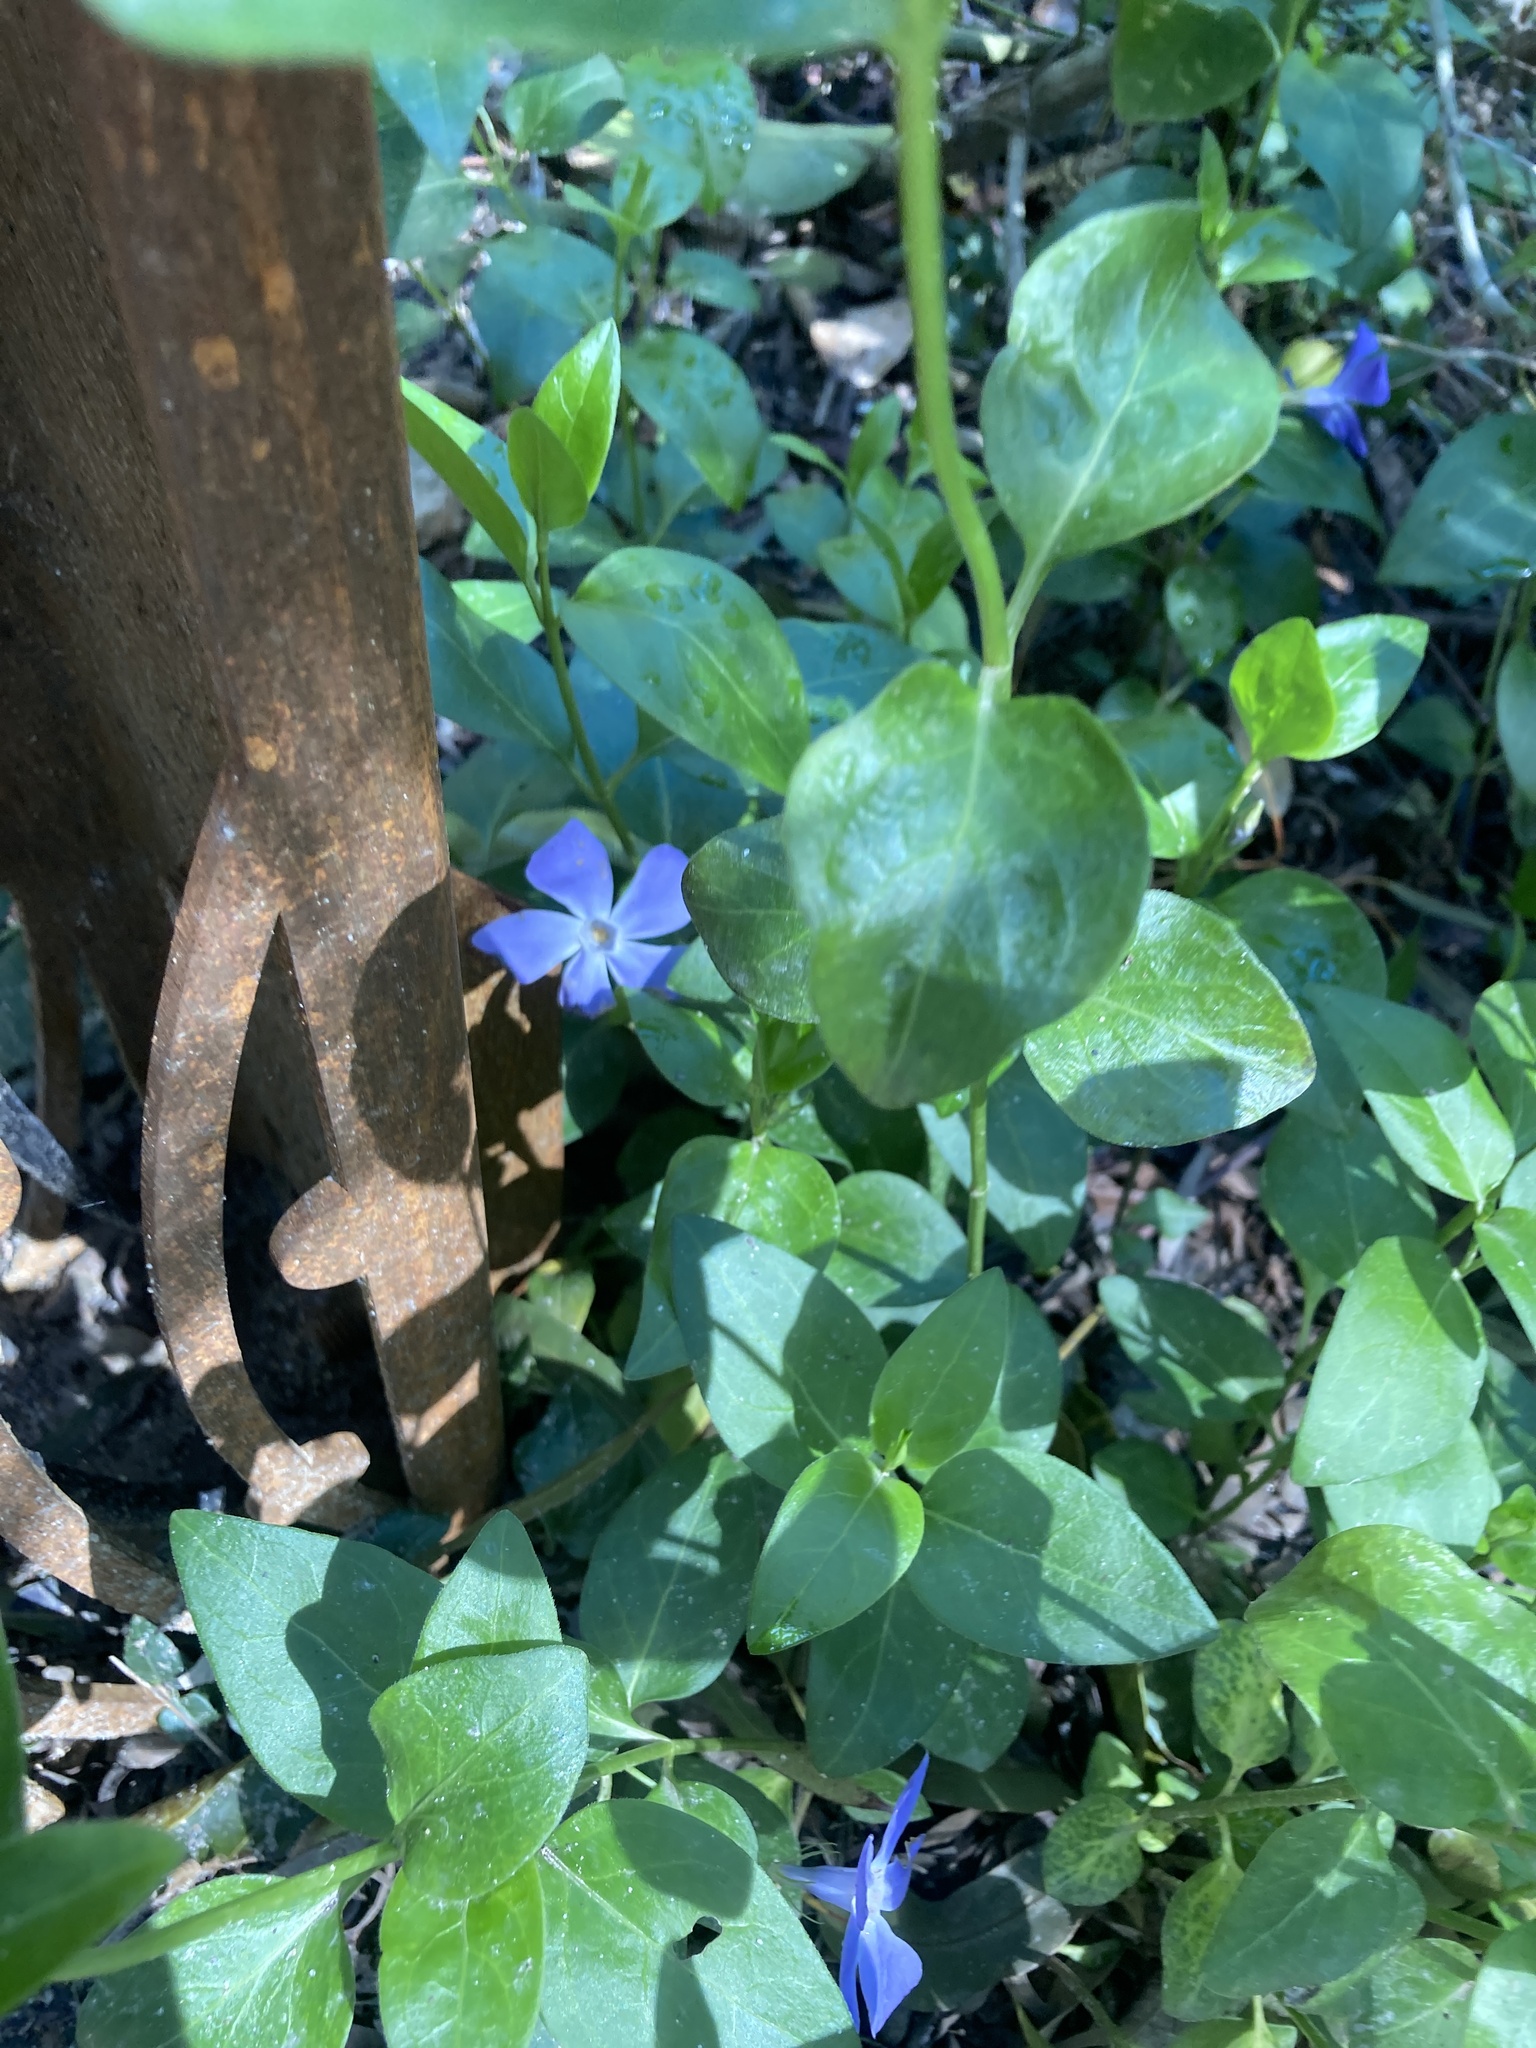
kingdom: Plantae
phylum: Tracheophyta
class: Magnoliopsida
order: Gentianales
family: Apocynaceae
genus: Vinca
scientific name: Vinca major
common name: Greater periwinkle
